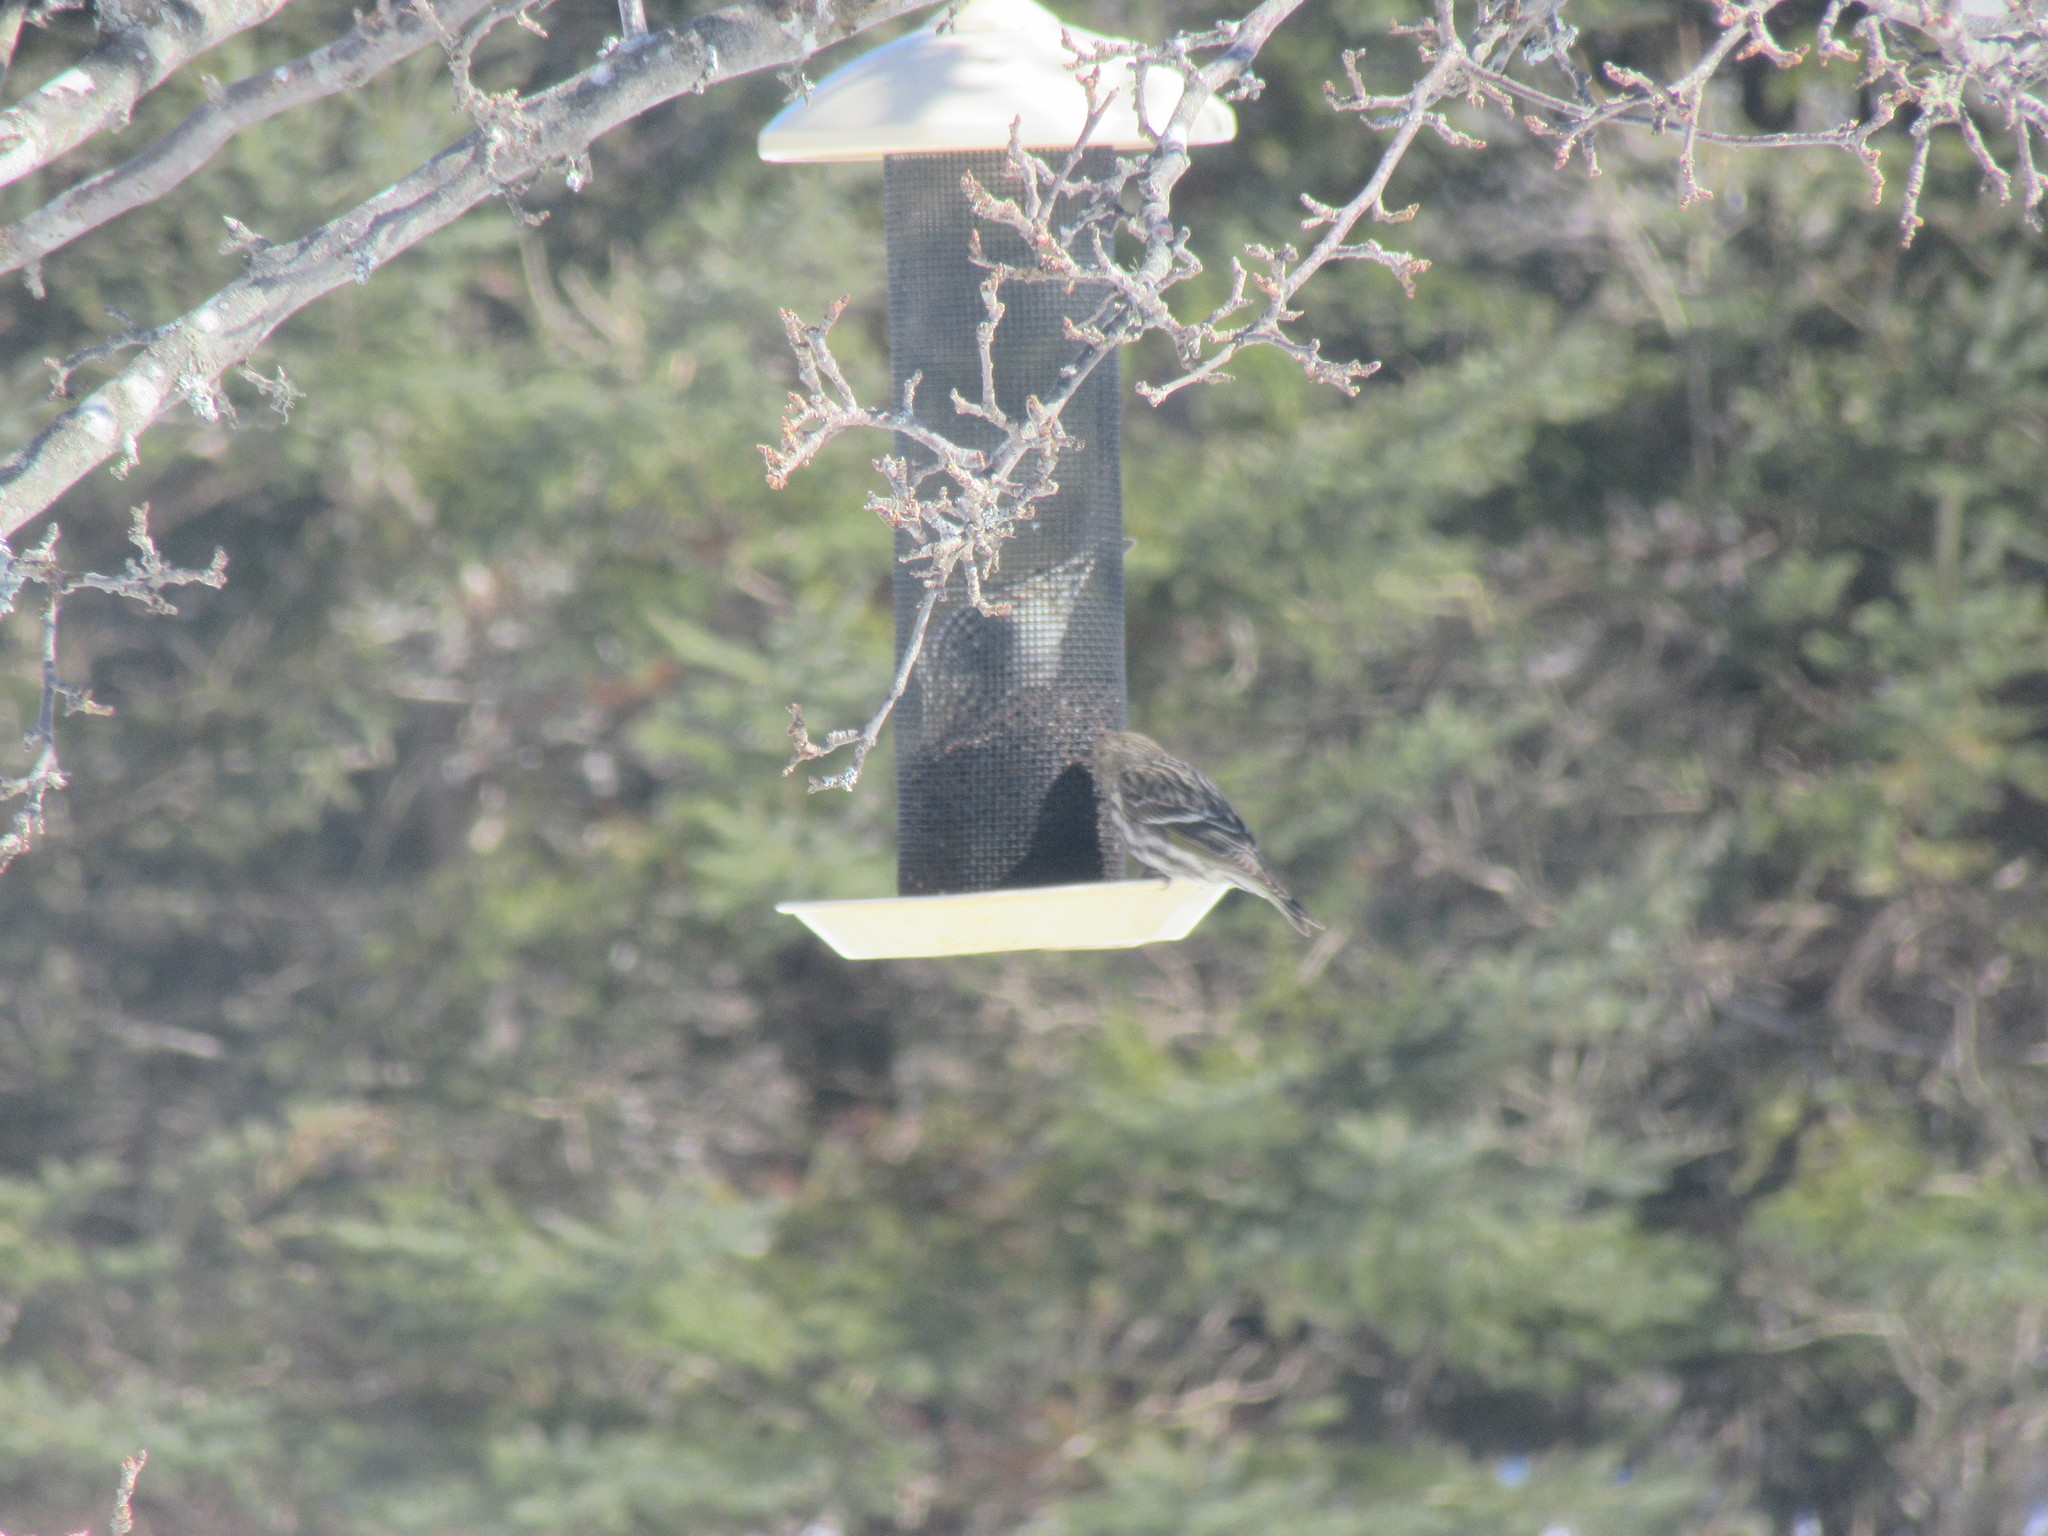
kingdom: Animalia
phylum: Chordata
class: Aves
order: Passeriformes
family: Fringillidae
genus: Spinus
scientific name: Spinus pinus
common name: Pine siskin
